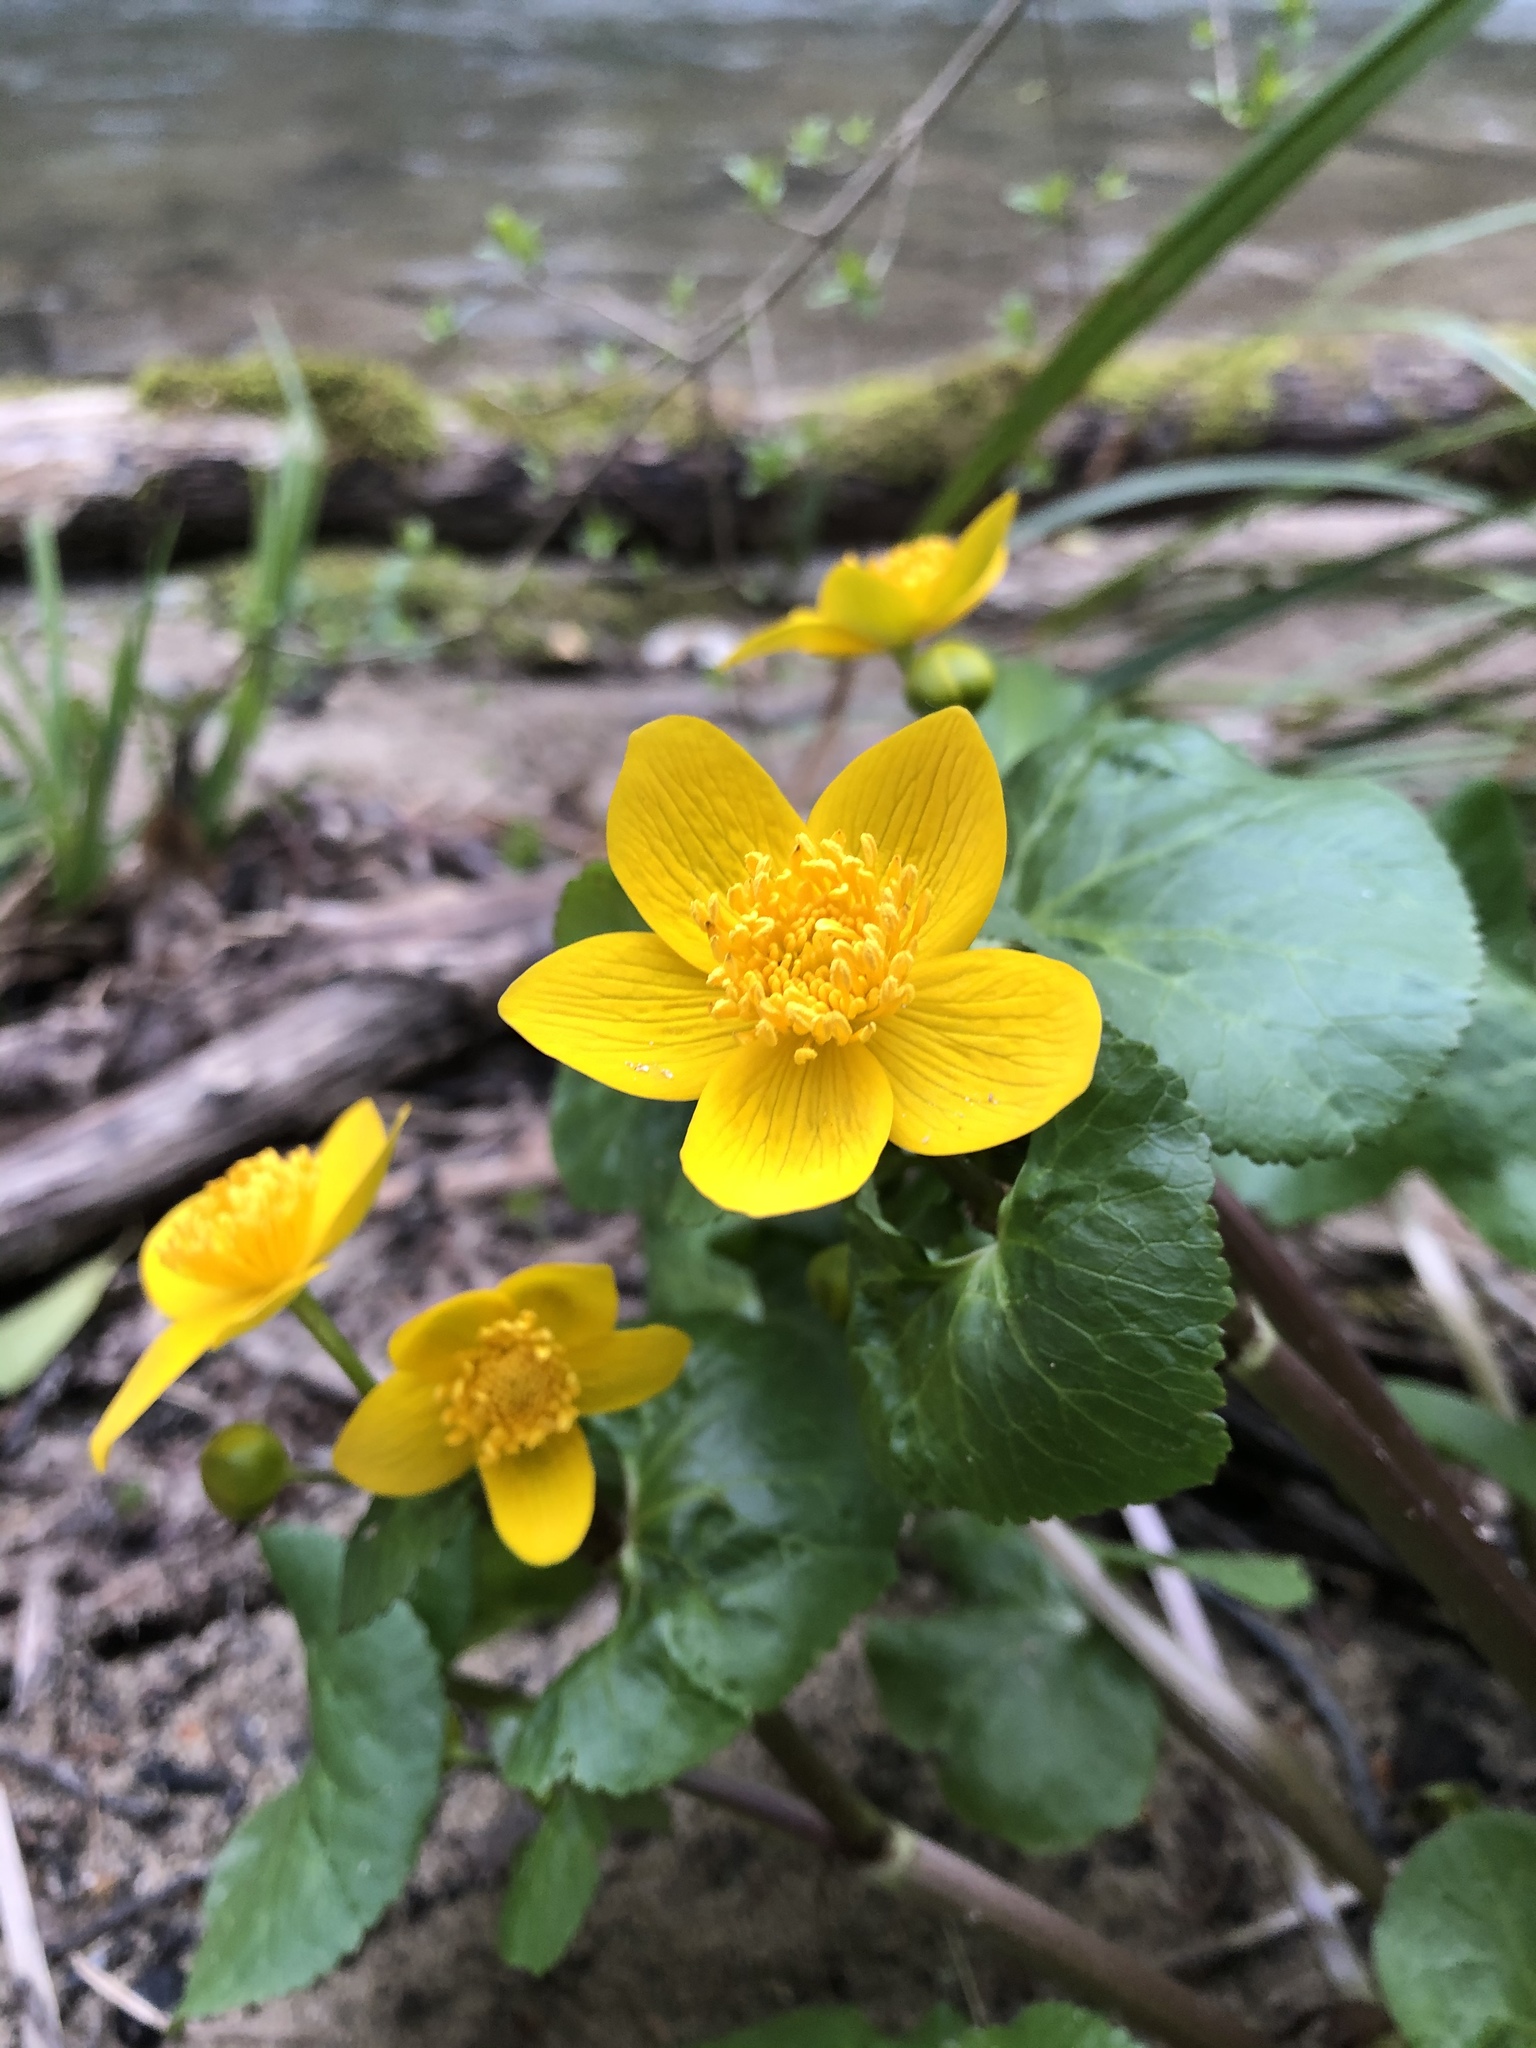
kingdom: Plantae
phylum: Tracheophyta
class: Magnoliopsida
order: Ranunculales
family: Ranunculaceae
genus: Caltha
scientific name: Caltha palustris
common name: Marsh marigold
